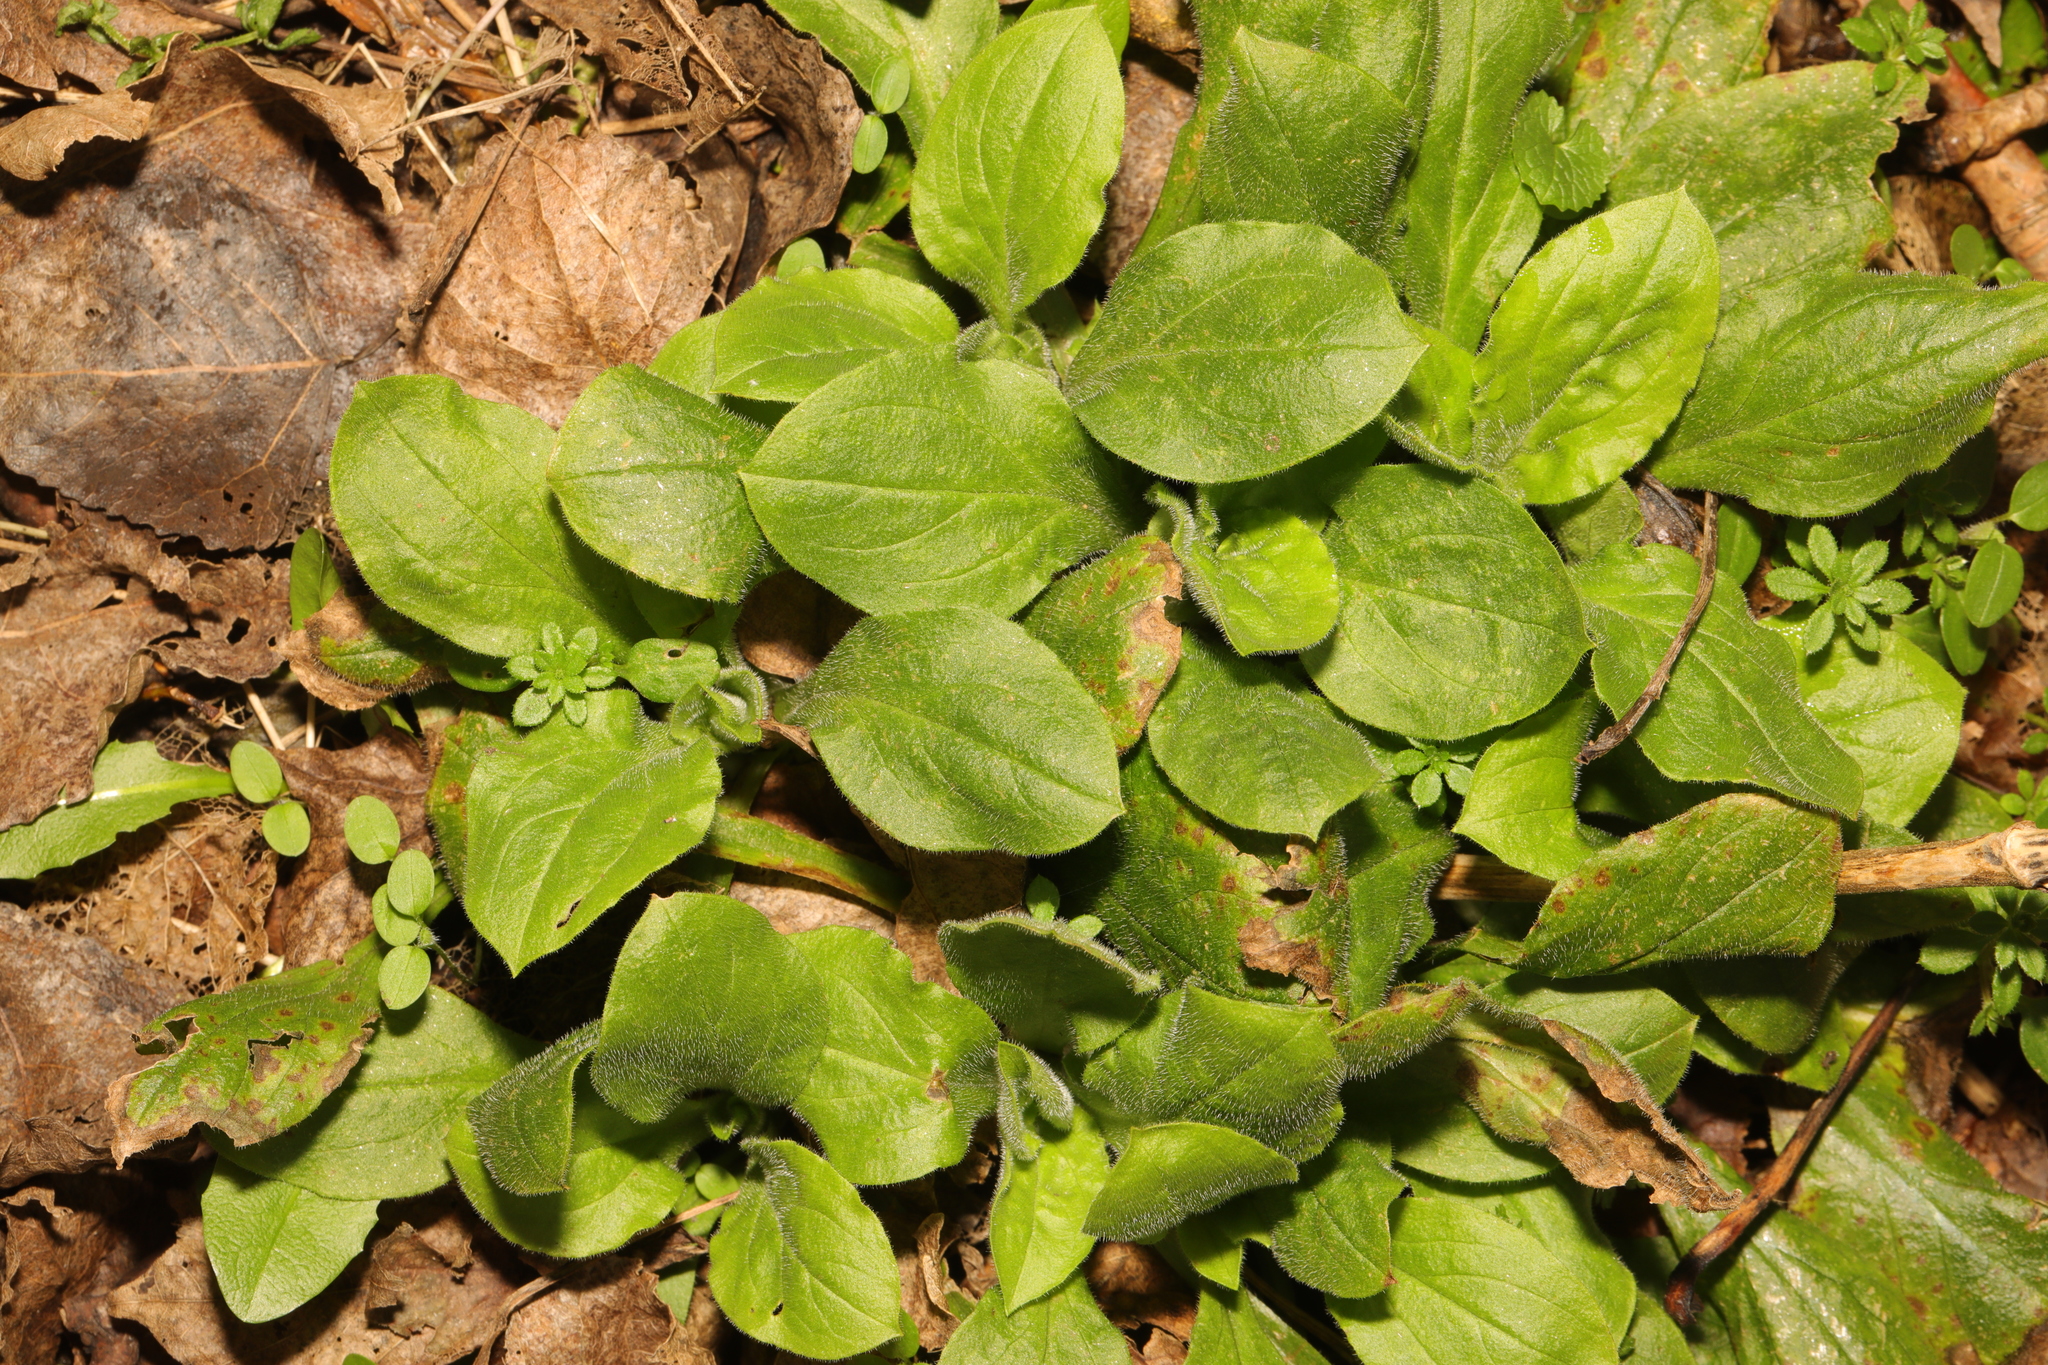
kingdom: Plantae
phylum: Tracheophyta
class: Magnoliopsida
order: Caryophyllales
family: Caryophyllaceae
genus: Silene
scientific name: Silene dioica
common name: Red campion
